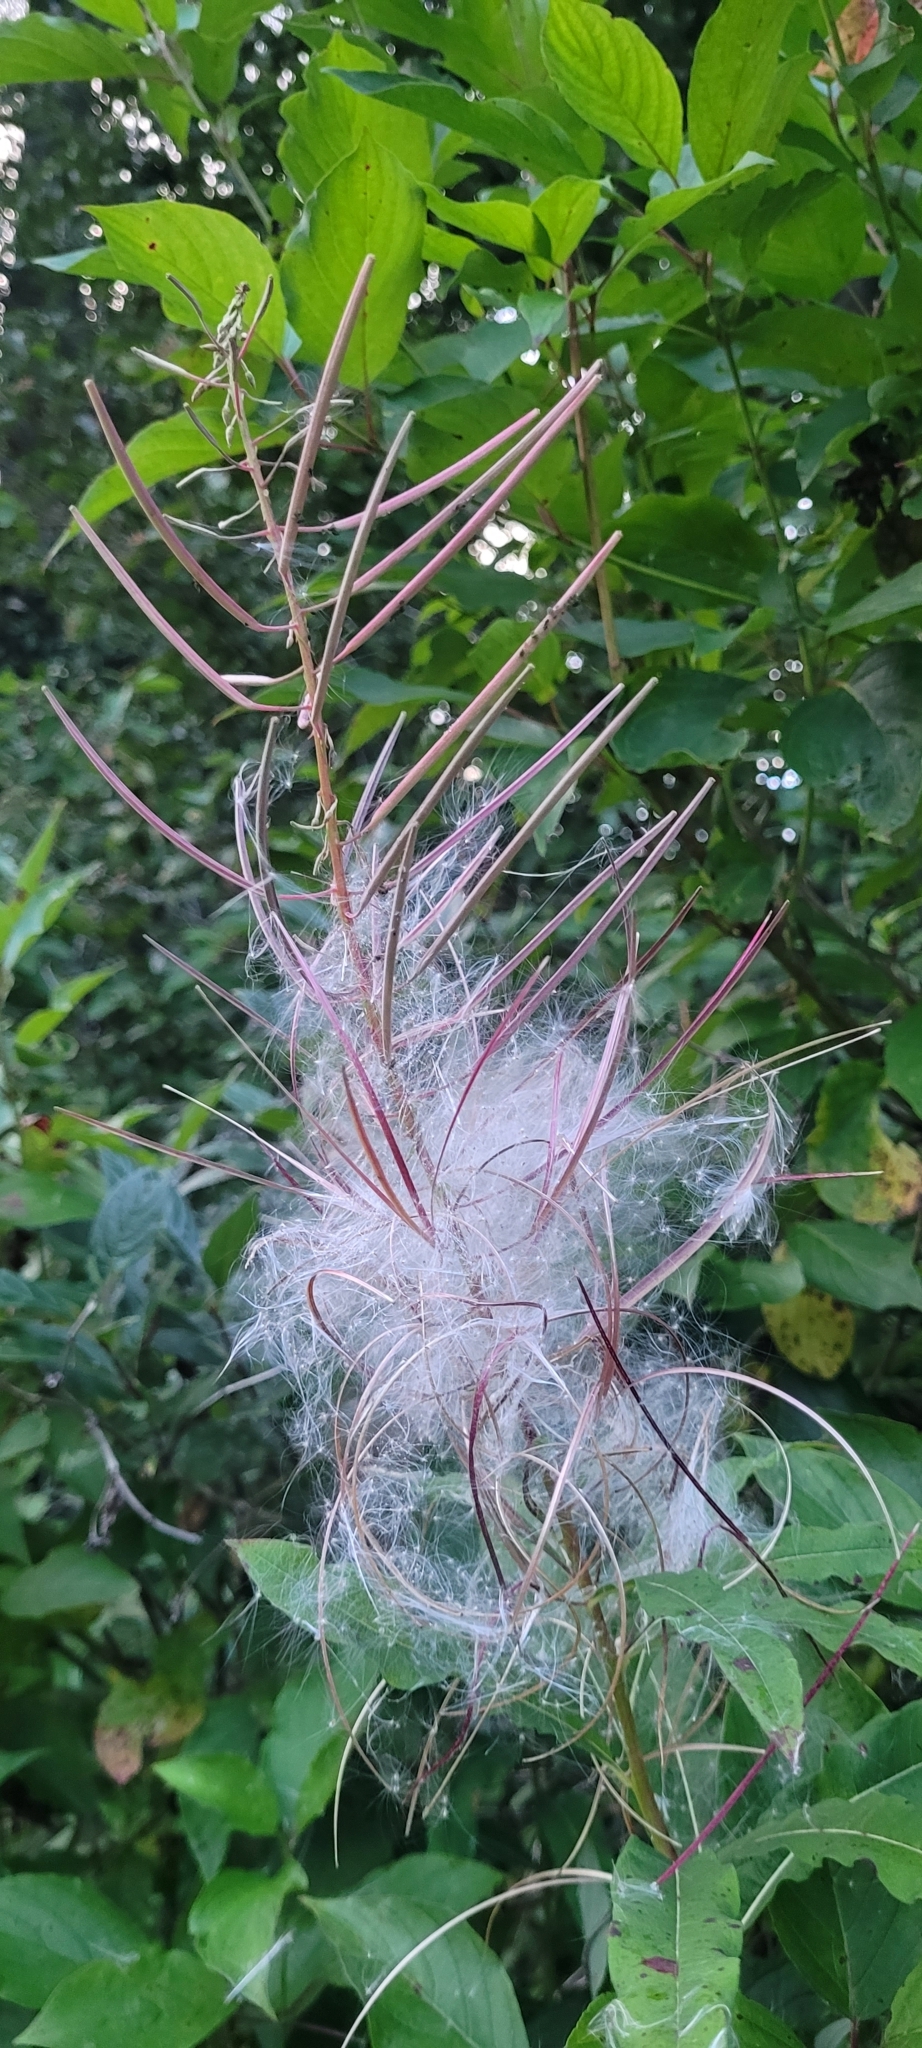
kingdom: Plantae
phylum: Tracheophyta
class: Magnoliopsida
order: Myrtales
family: Onagraceae
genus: Chamaenerion
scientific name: Chamaenerion angustifolium
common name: Fireweed
